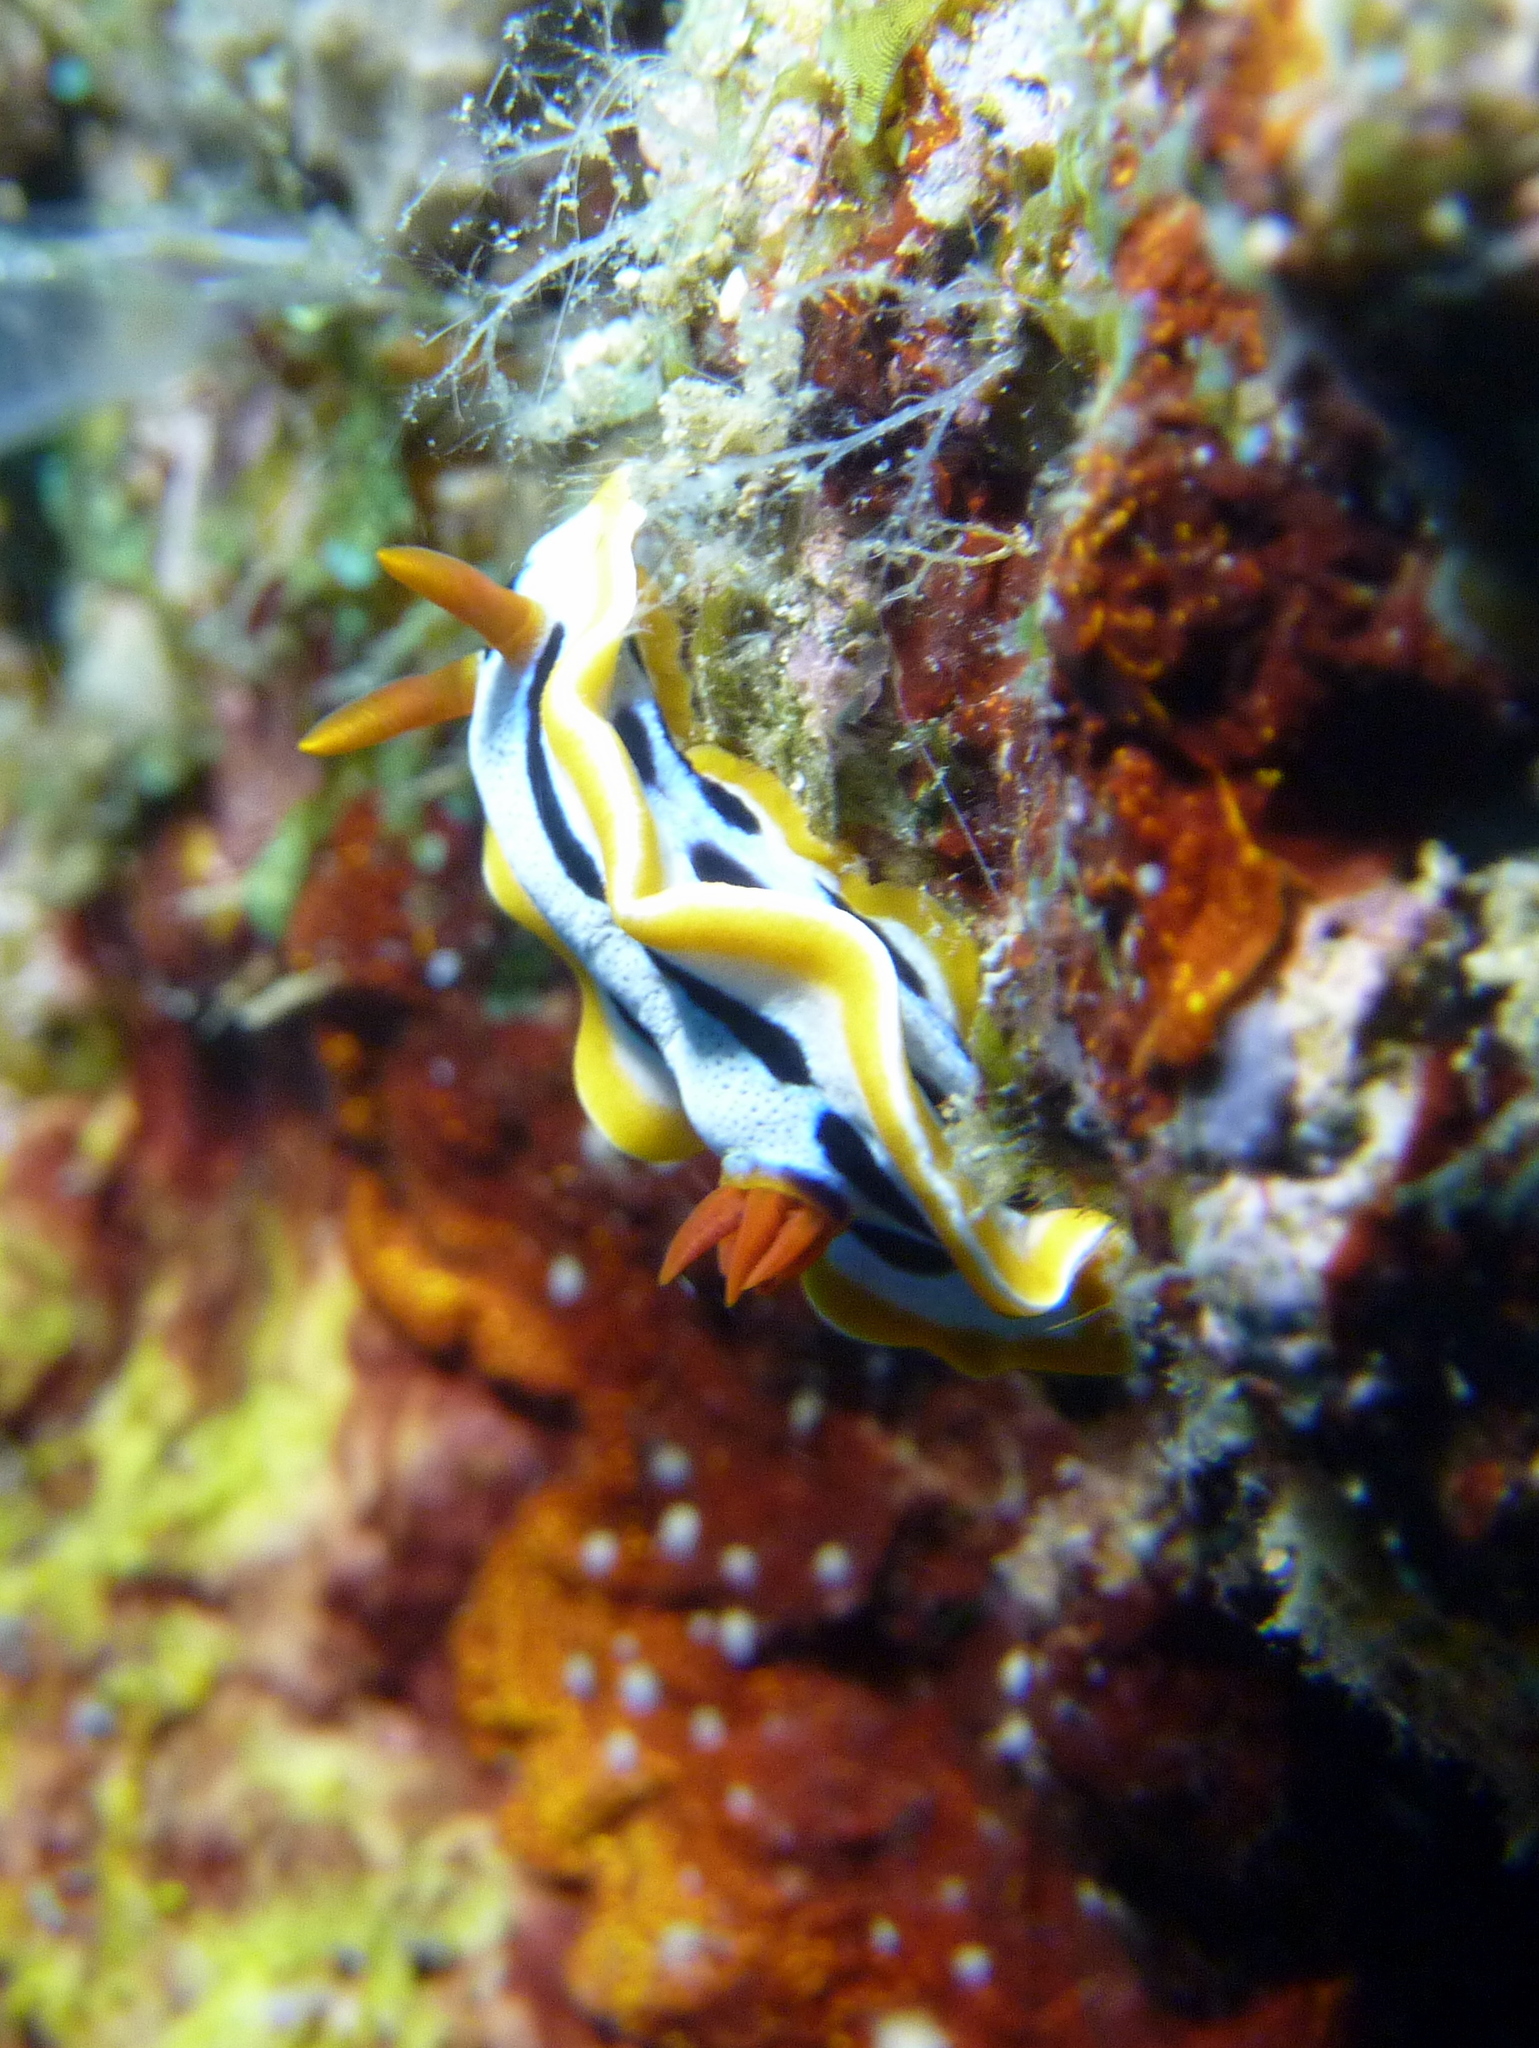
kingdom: Animalia
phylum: Mollusca
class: Gastropoda
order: Nudibranchia
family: Chromodorididae
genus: Chromodoris
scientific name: Chromodoris annae
